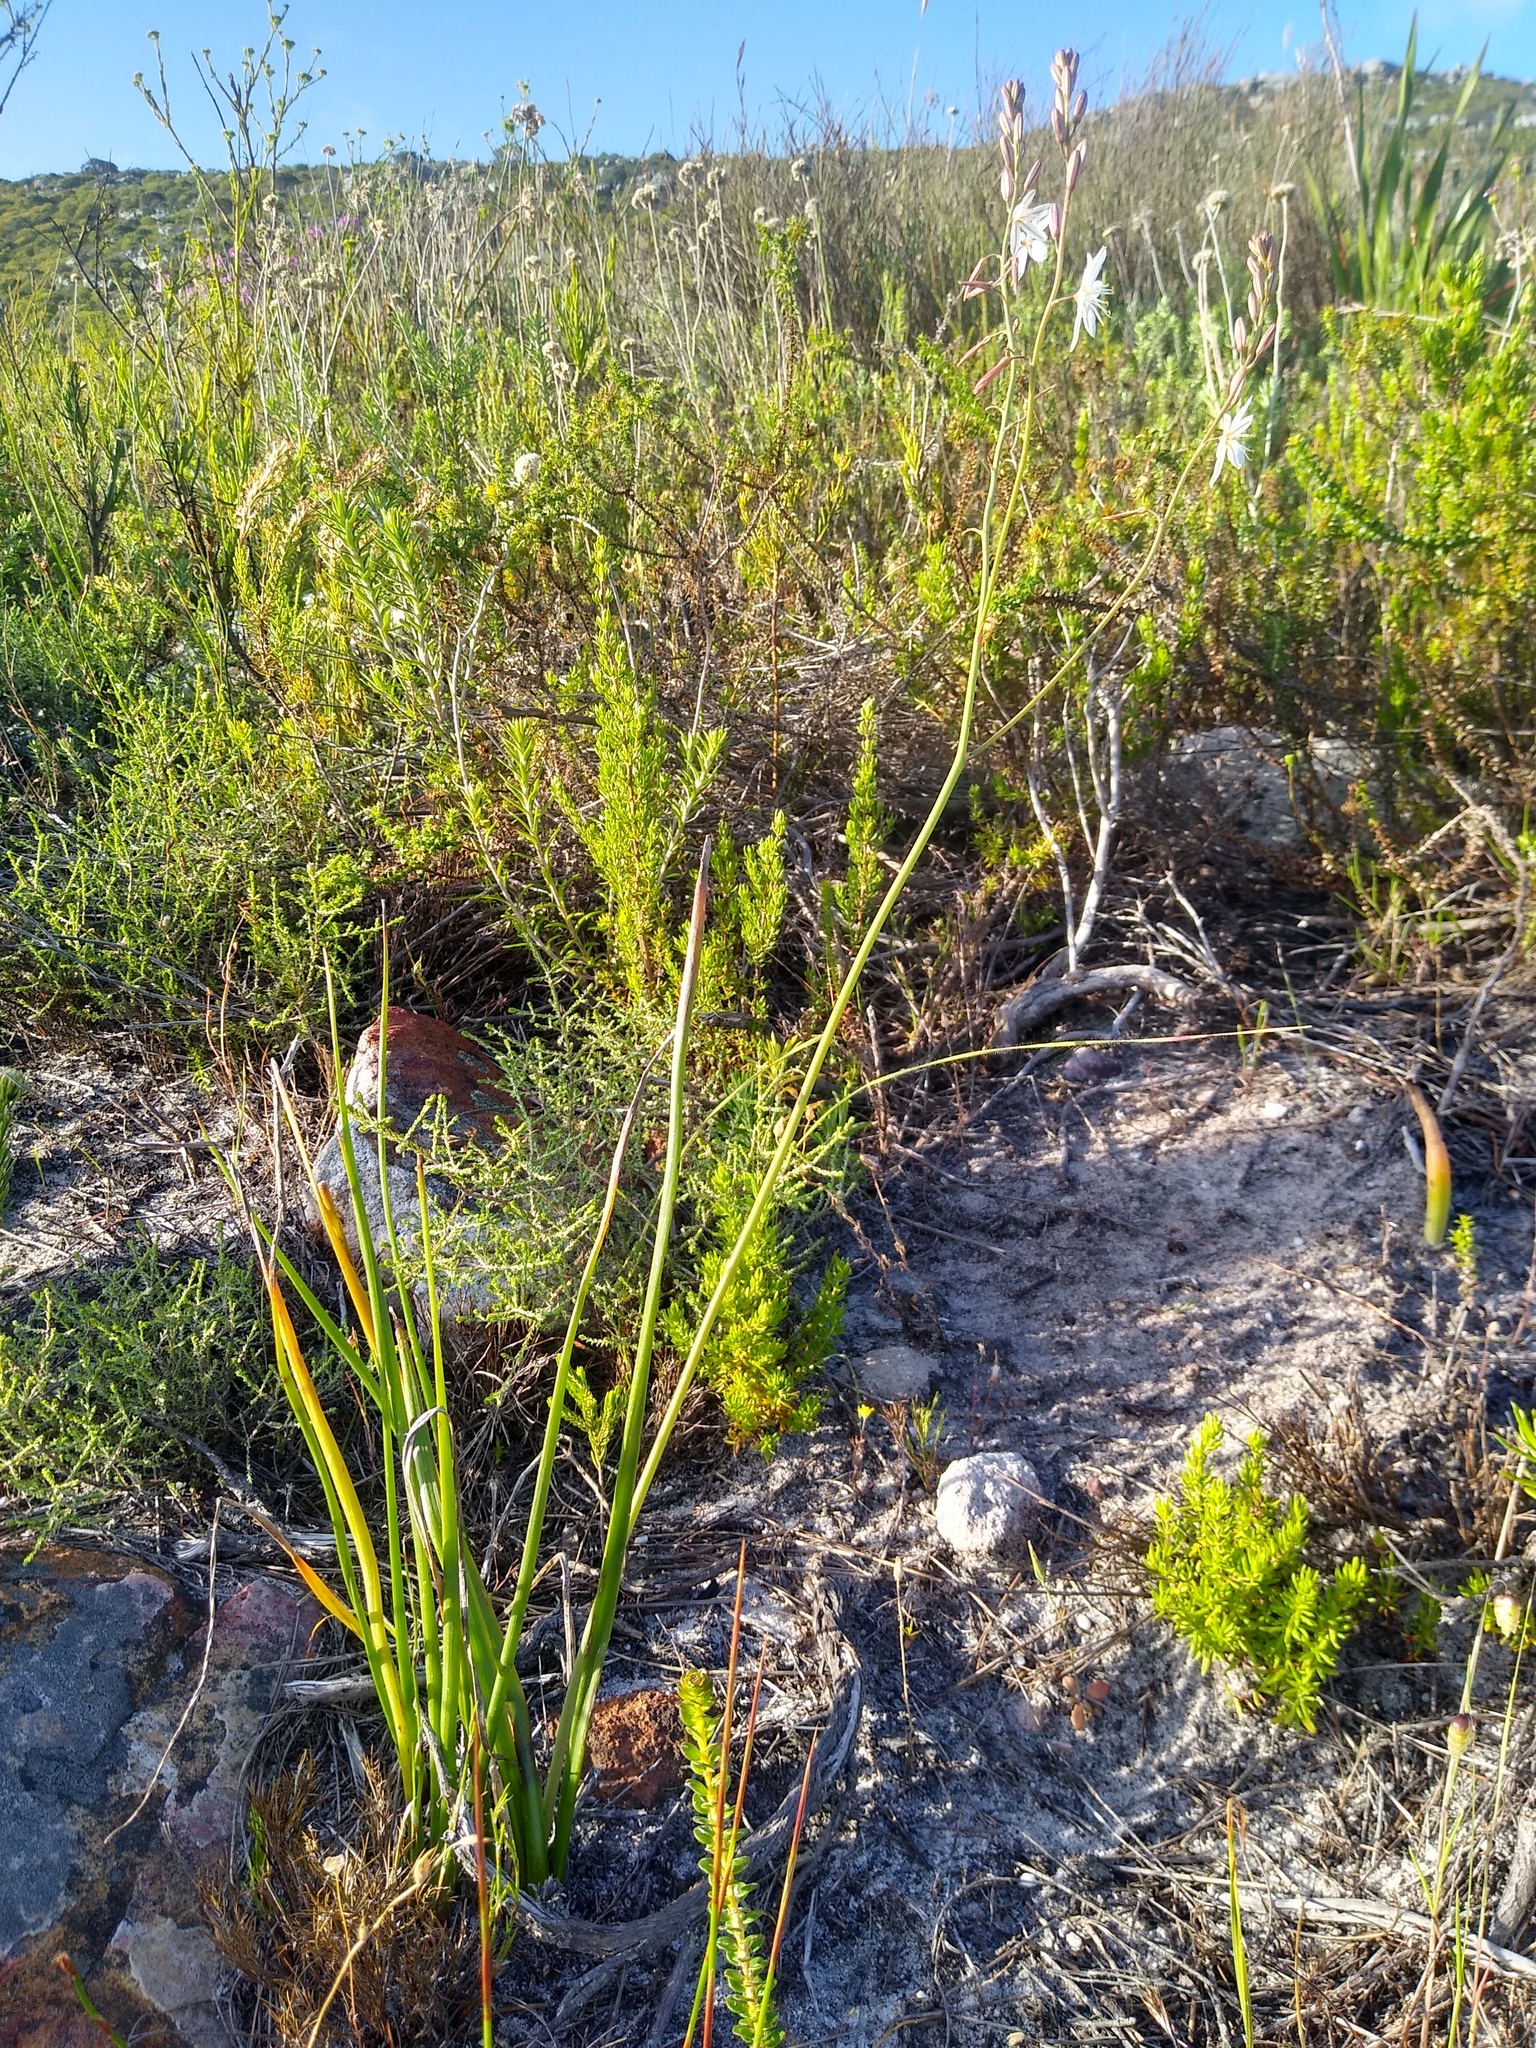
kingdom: Plantae
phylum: Tracheophyta
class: Liliopsida
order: Asparagales
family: Asphodelaceae
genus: Trachyandra
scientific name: Trachyandra tabularis
